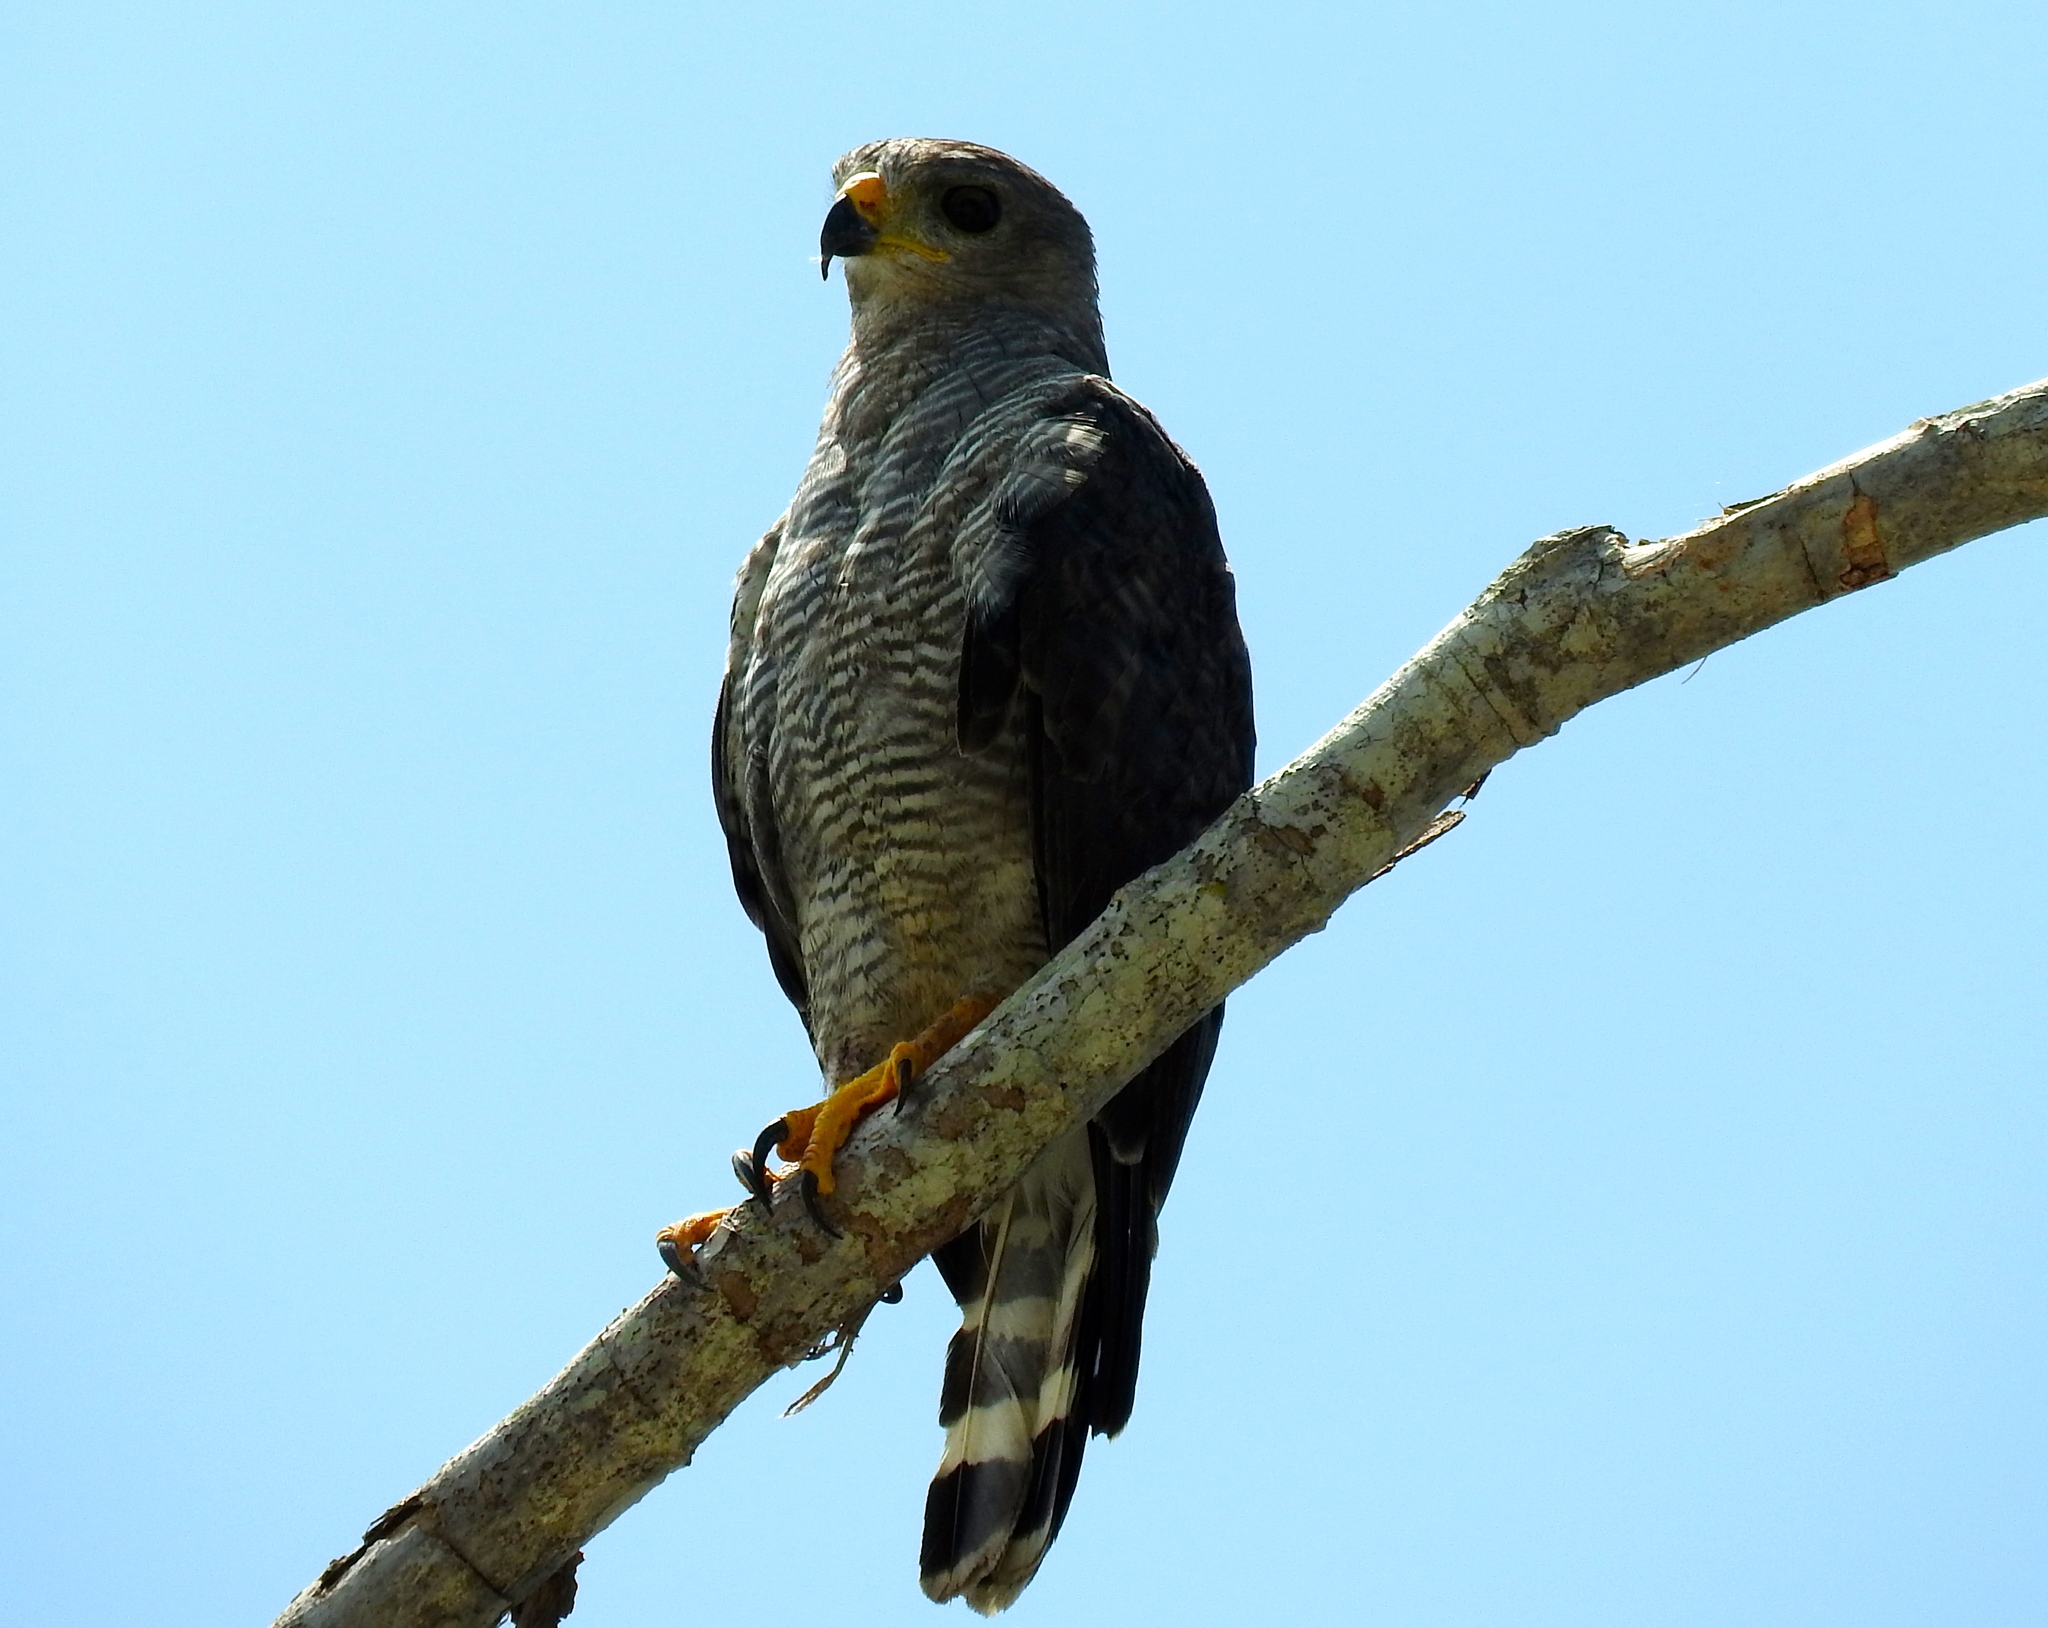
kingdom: Animalia
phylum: Chordata
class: Aves
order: Accipitriformes
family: Accipitridae
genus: Buteo
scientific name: Buteo nitidus
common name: Grey-lined hawk
